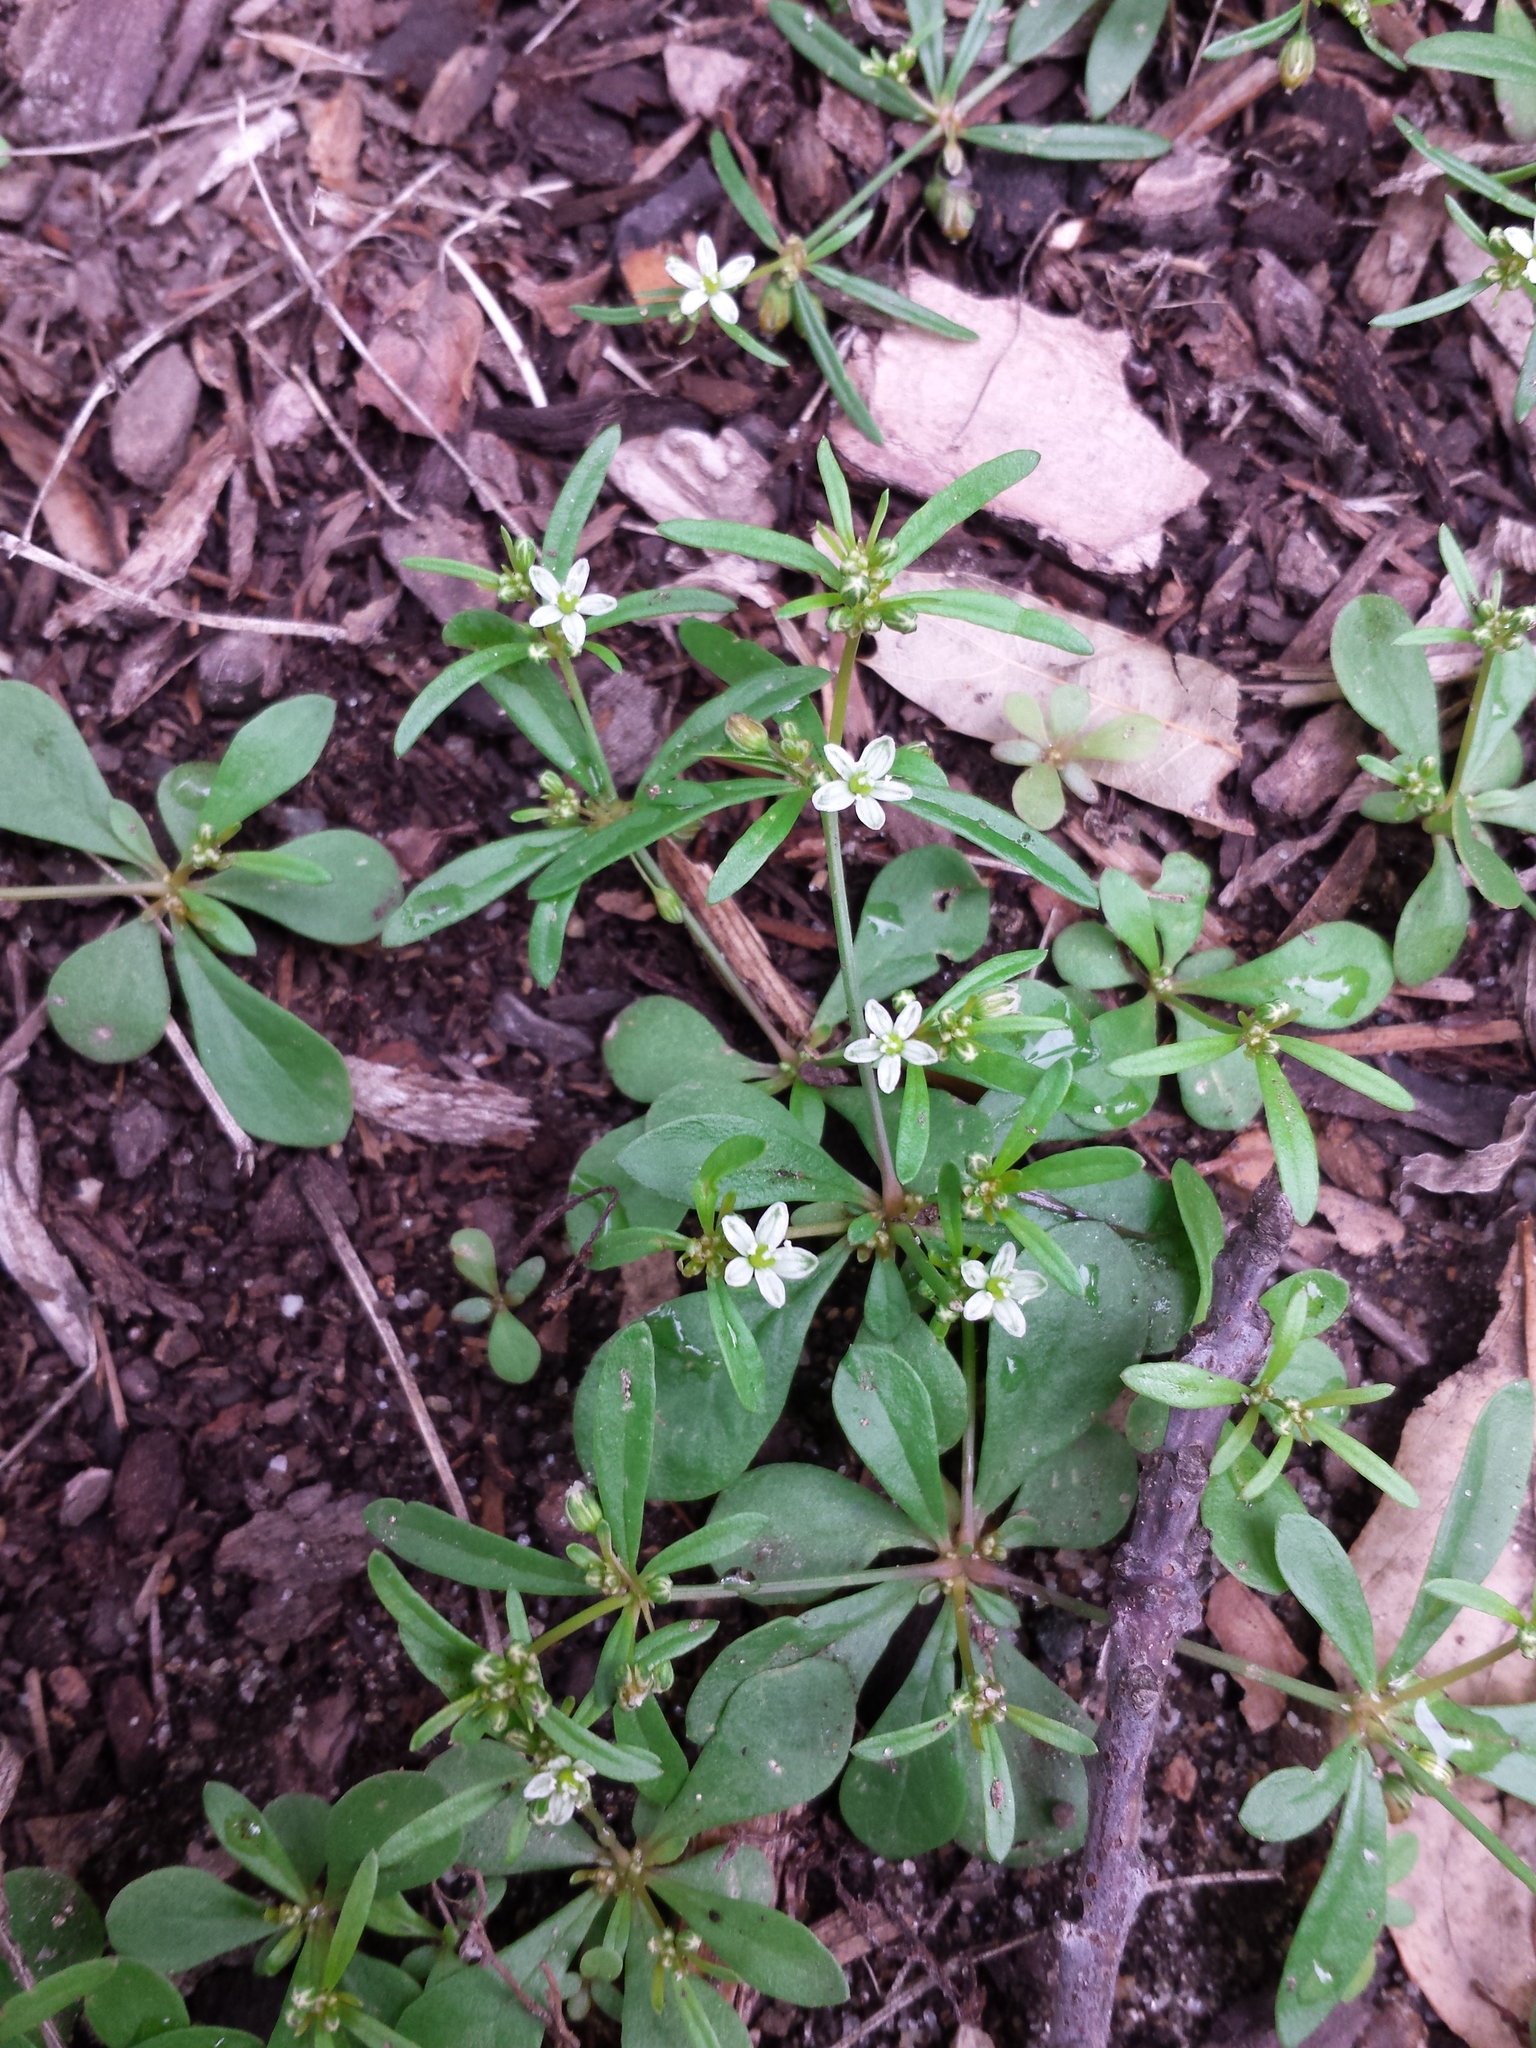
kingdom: Plantae
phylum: Tracheophyta
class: Magnoliopsida
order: Caryophyllales
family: Molluginaceae
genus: Mollugo
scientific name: Mollugo verticillata
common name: Green carpetweed
